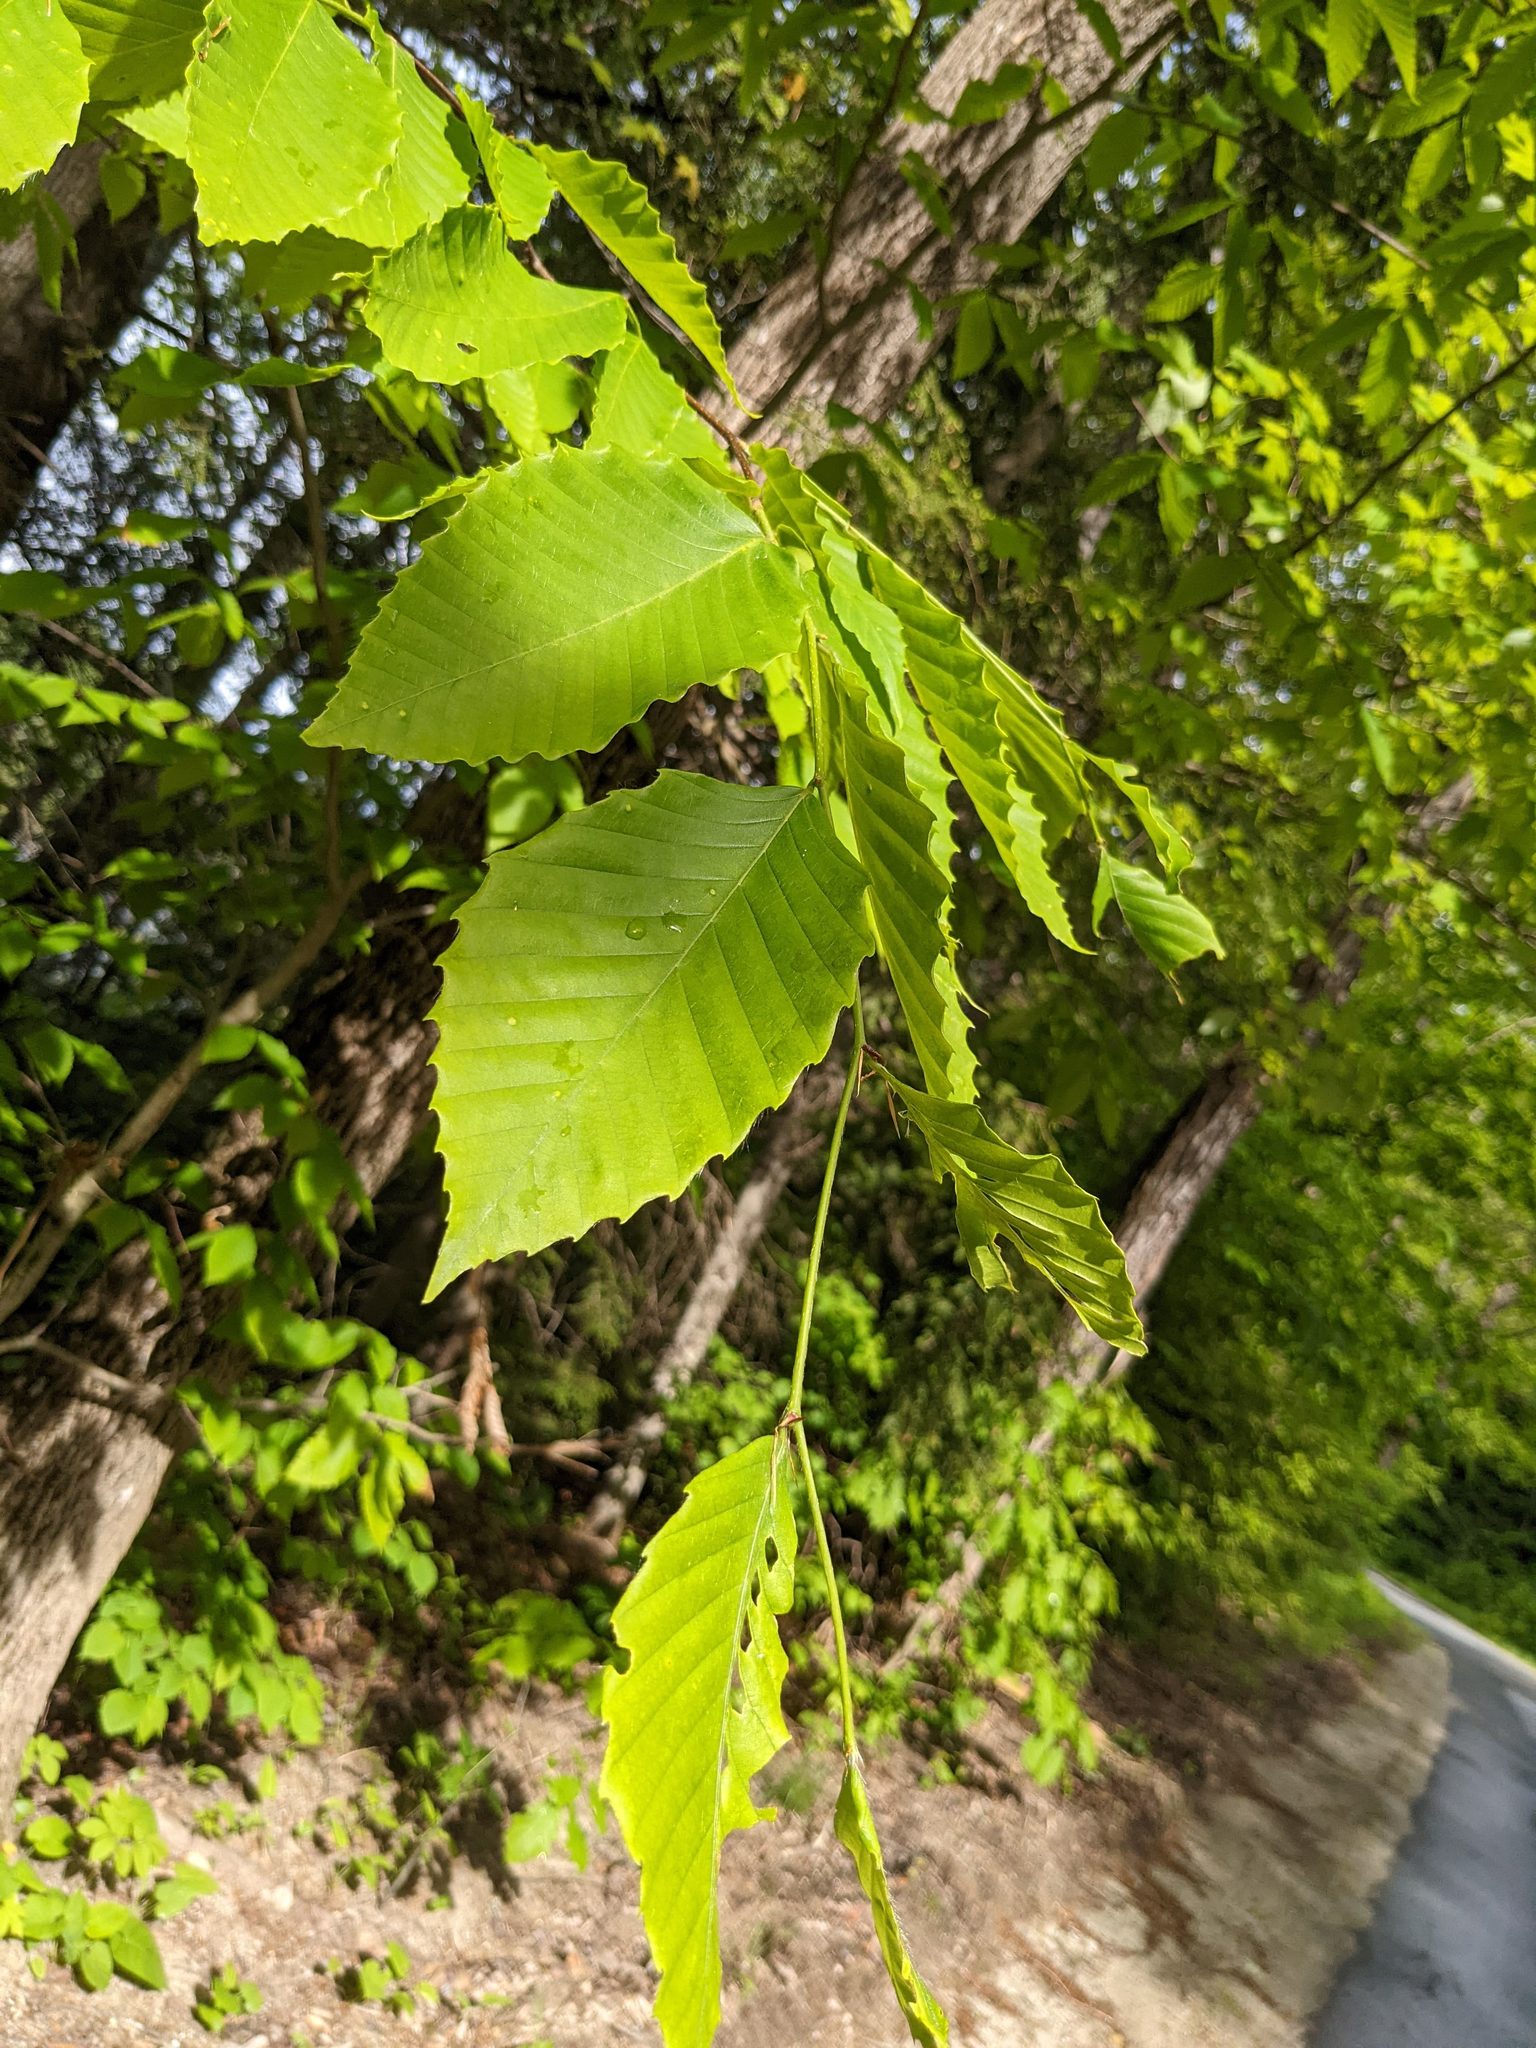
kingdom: Plantae
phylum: Tracheophyta
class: Magnoliopsida
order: Fagales
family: Fagaceae
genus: Fagus
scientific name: Fagus grandifolia
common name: American beech
